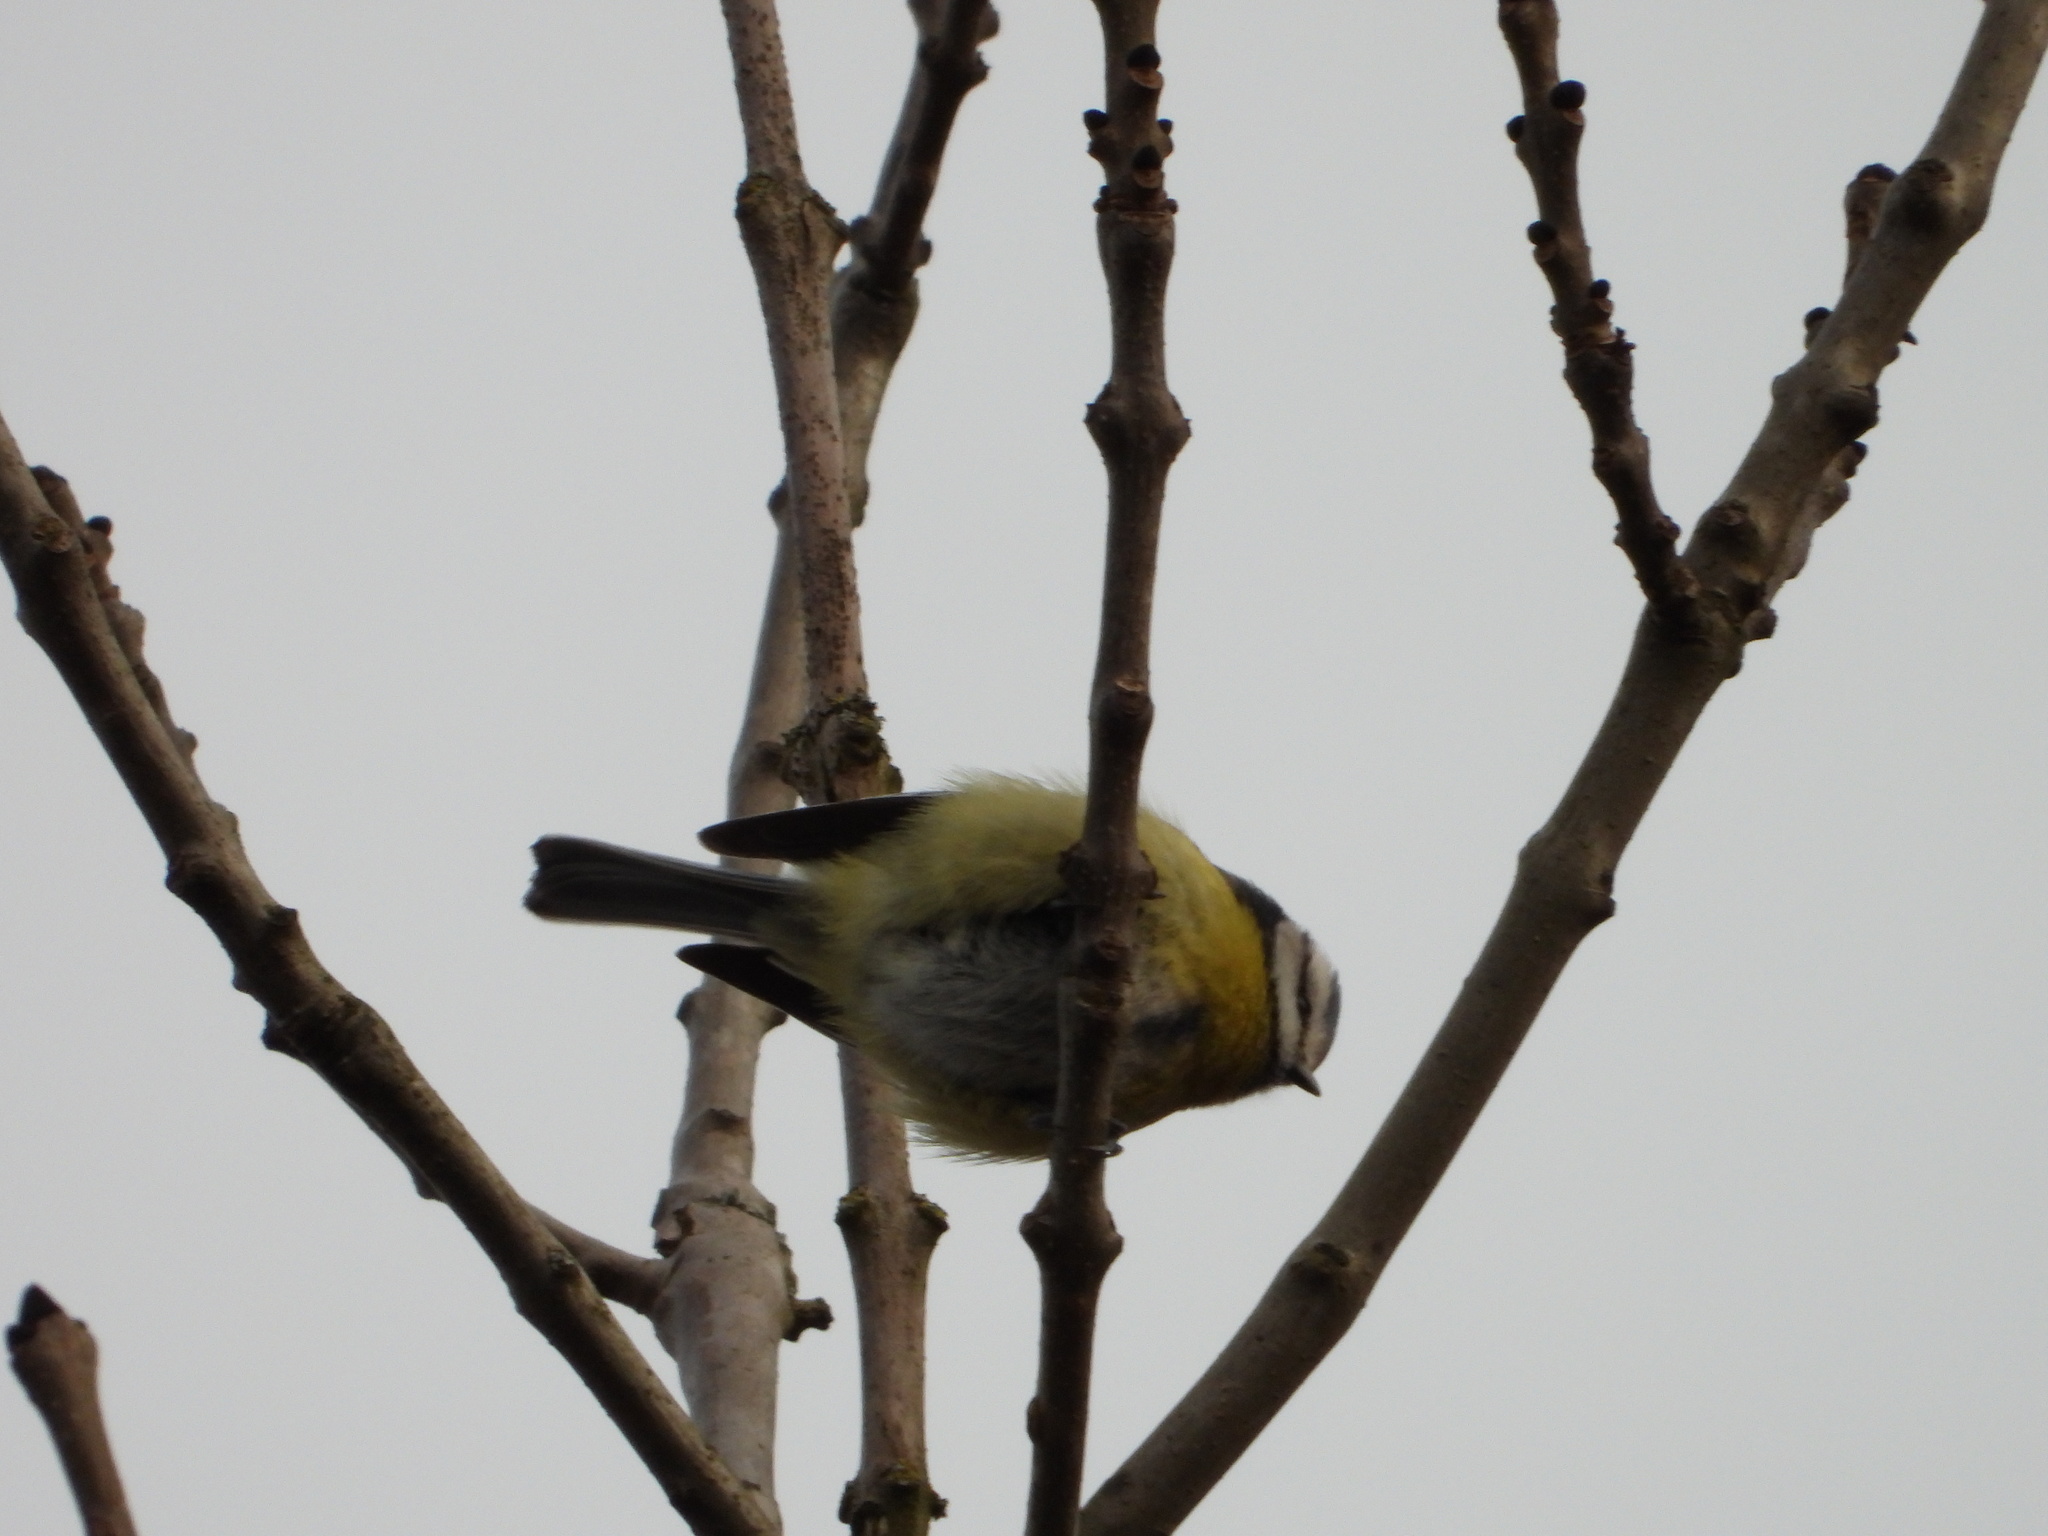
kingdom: Animalia
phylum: Chordata
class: Aves
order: Passeriformes
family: Paridae
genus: Cyanistes
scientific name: Cyanistes caeruleus
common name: Eurasian blue tit
